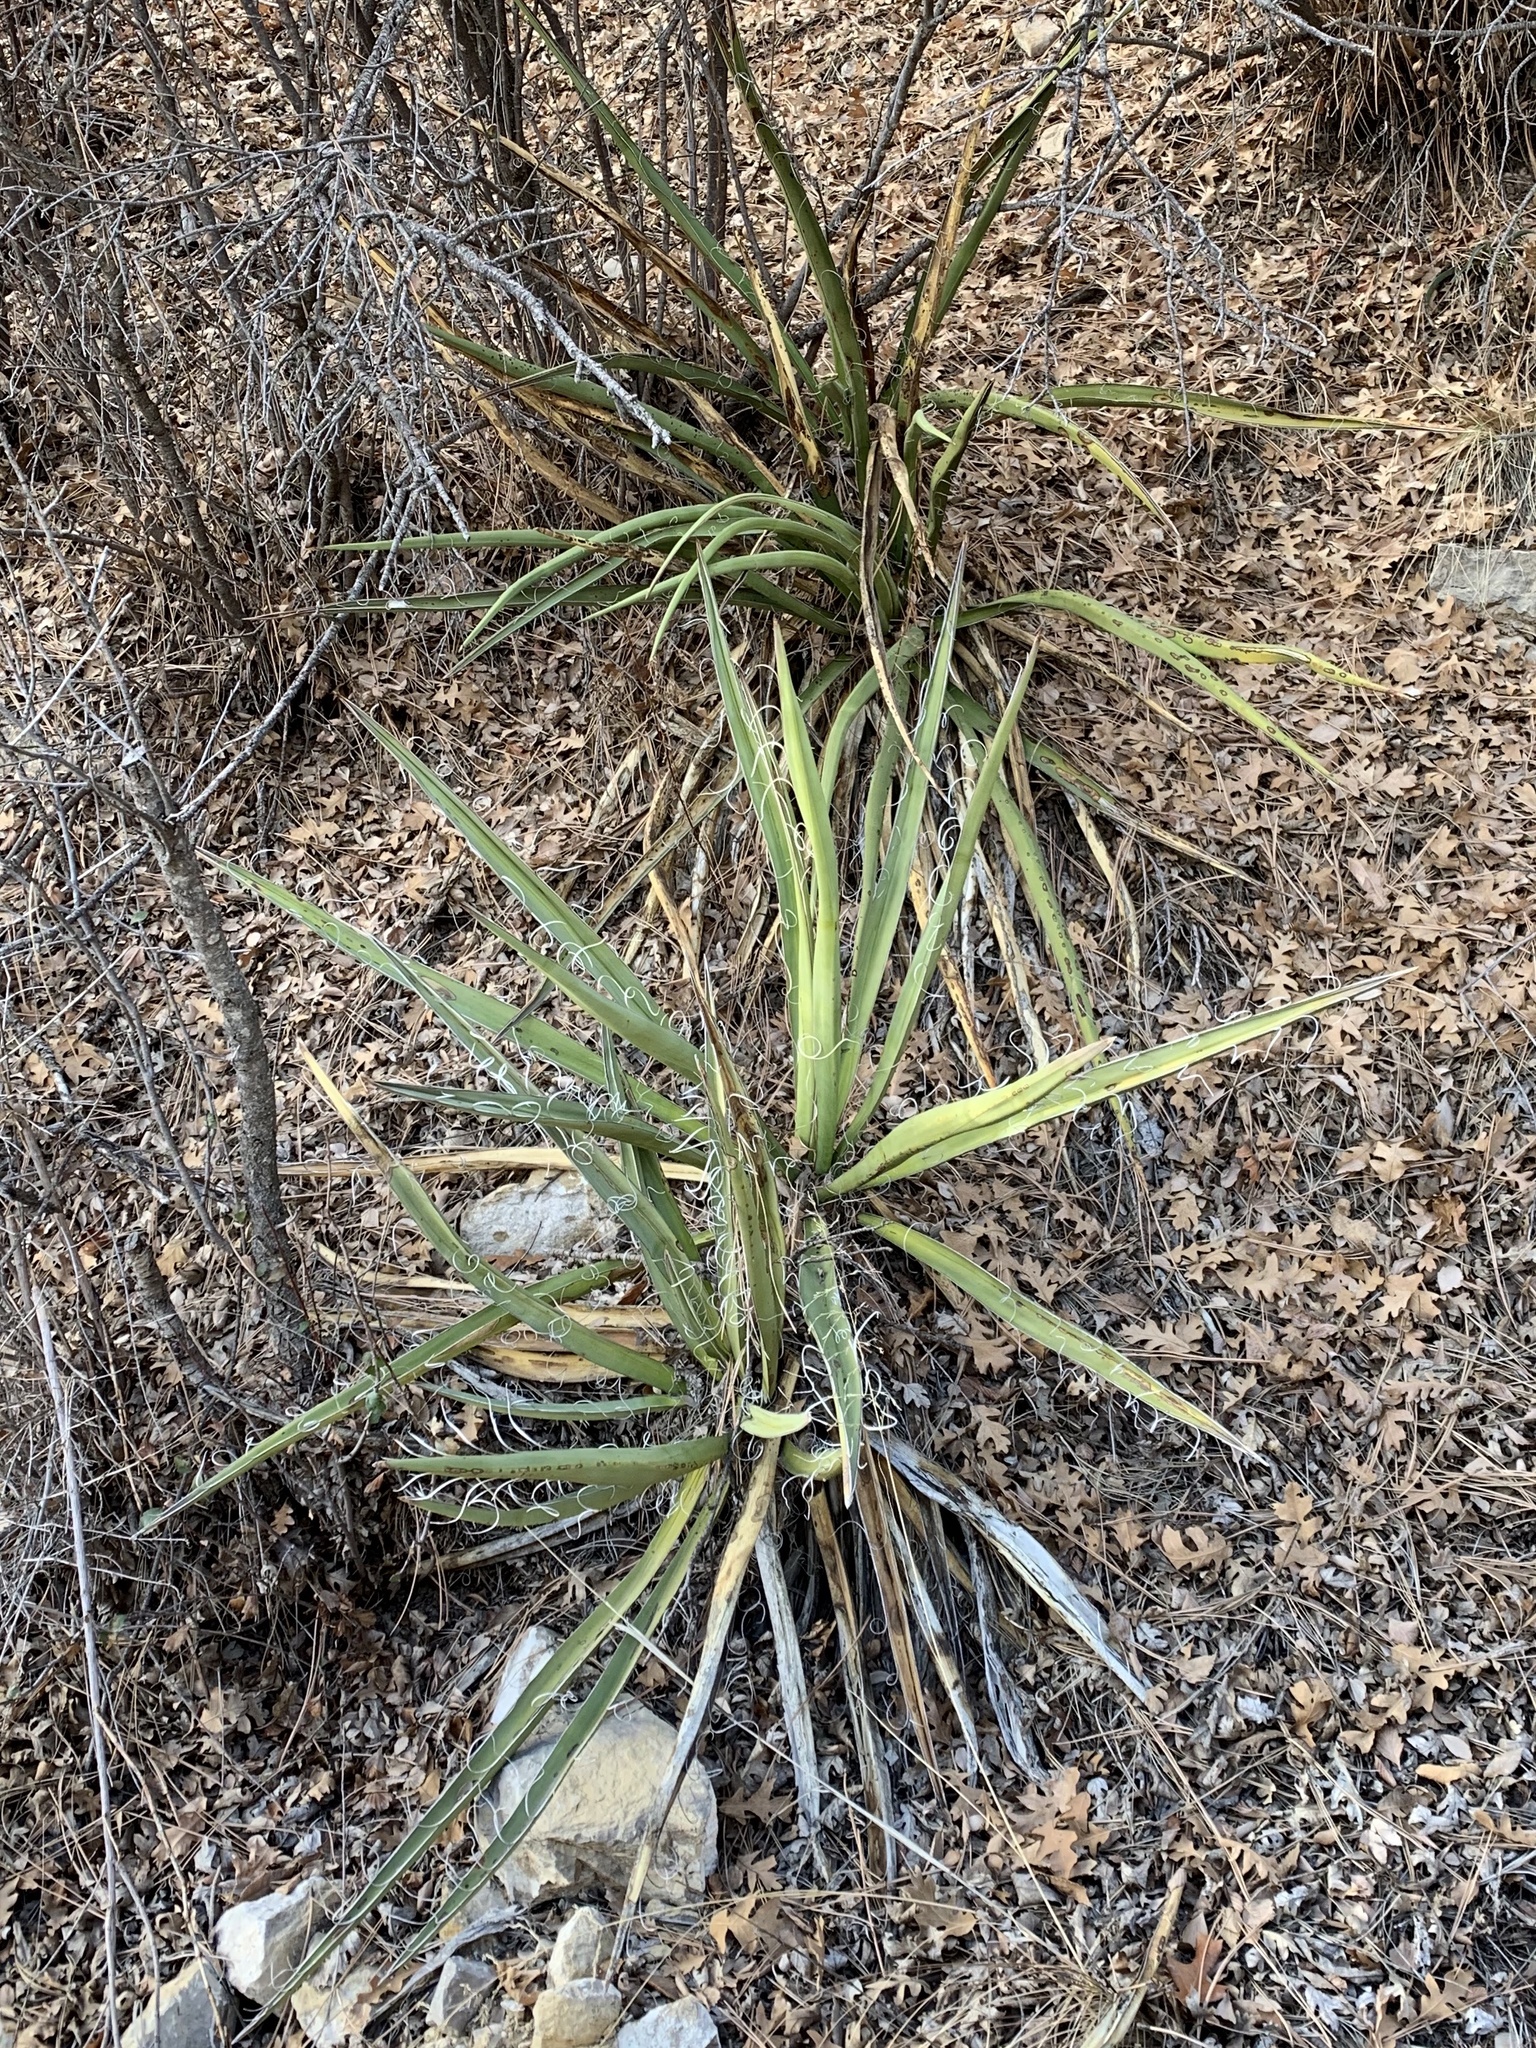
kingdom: Plantae
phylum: Tracheophyta
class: Liliopsida
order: Asparagales
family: Asparagaceae
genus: Yucca
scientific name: Yucca baccata
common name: Banana yucca
